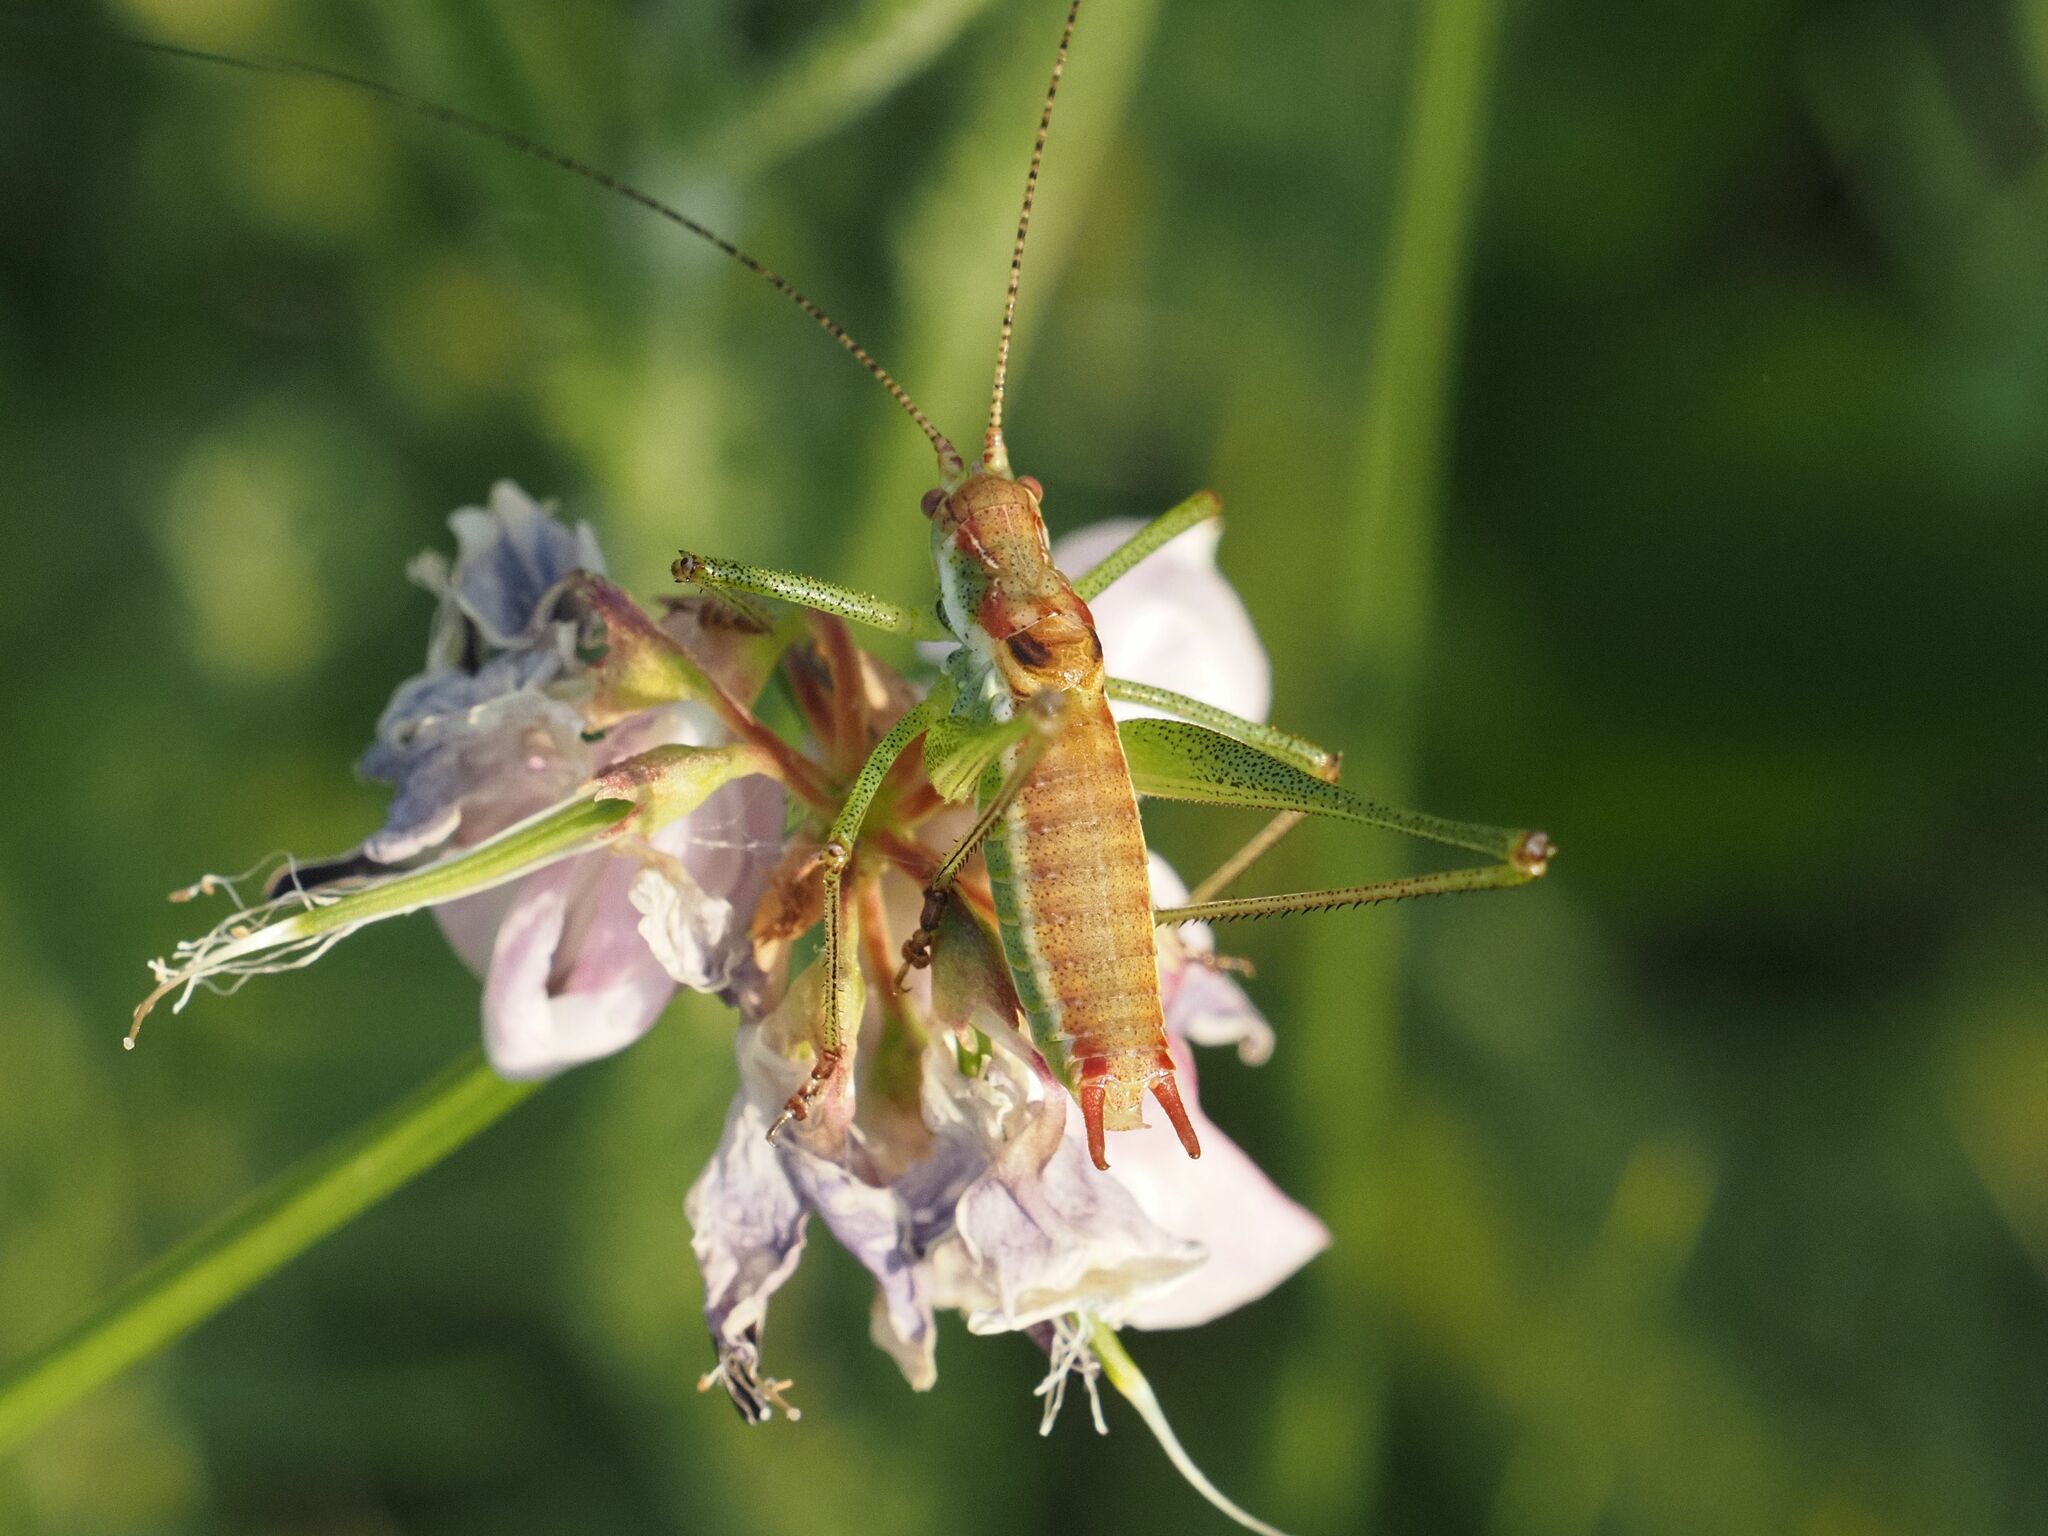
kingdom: Animalia
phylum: Arthropoda
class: Insecta
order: Orthoptera
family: Tettigoniidae
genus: Leptophyes
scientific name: Leptophyes albovittata
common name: Striped bush-cricket
